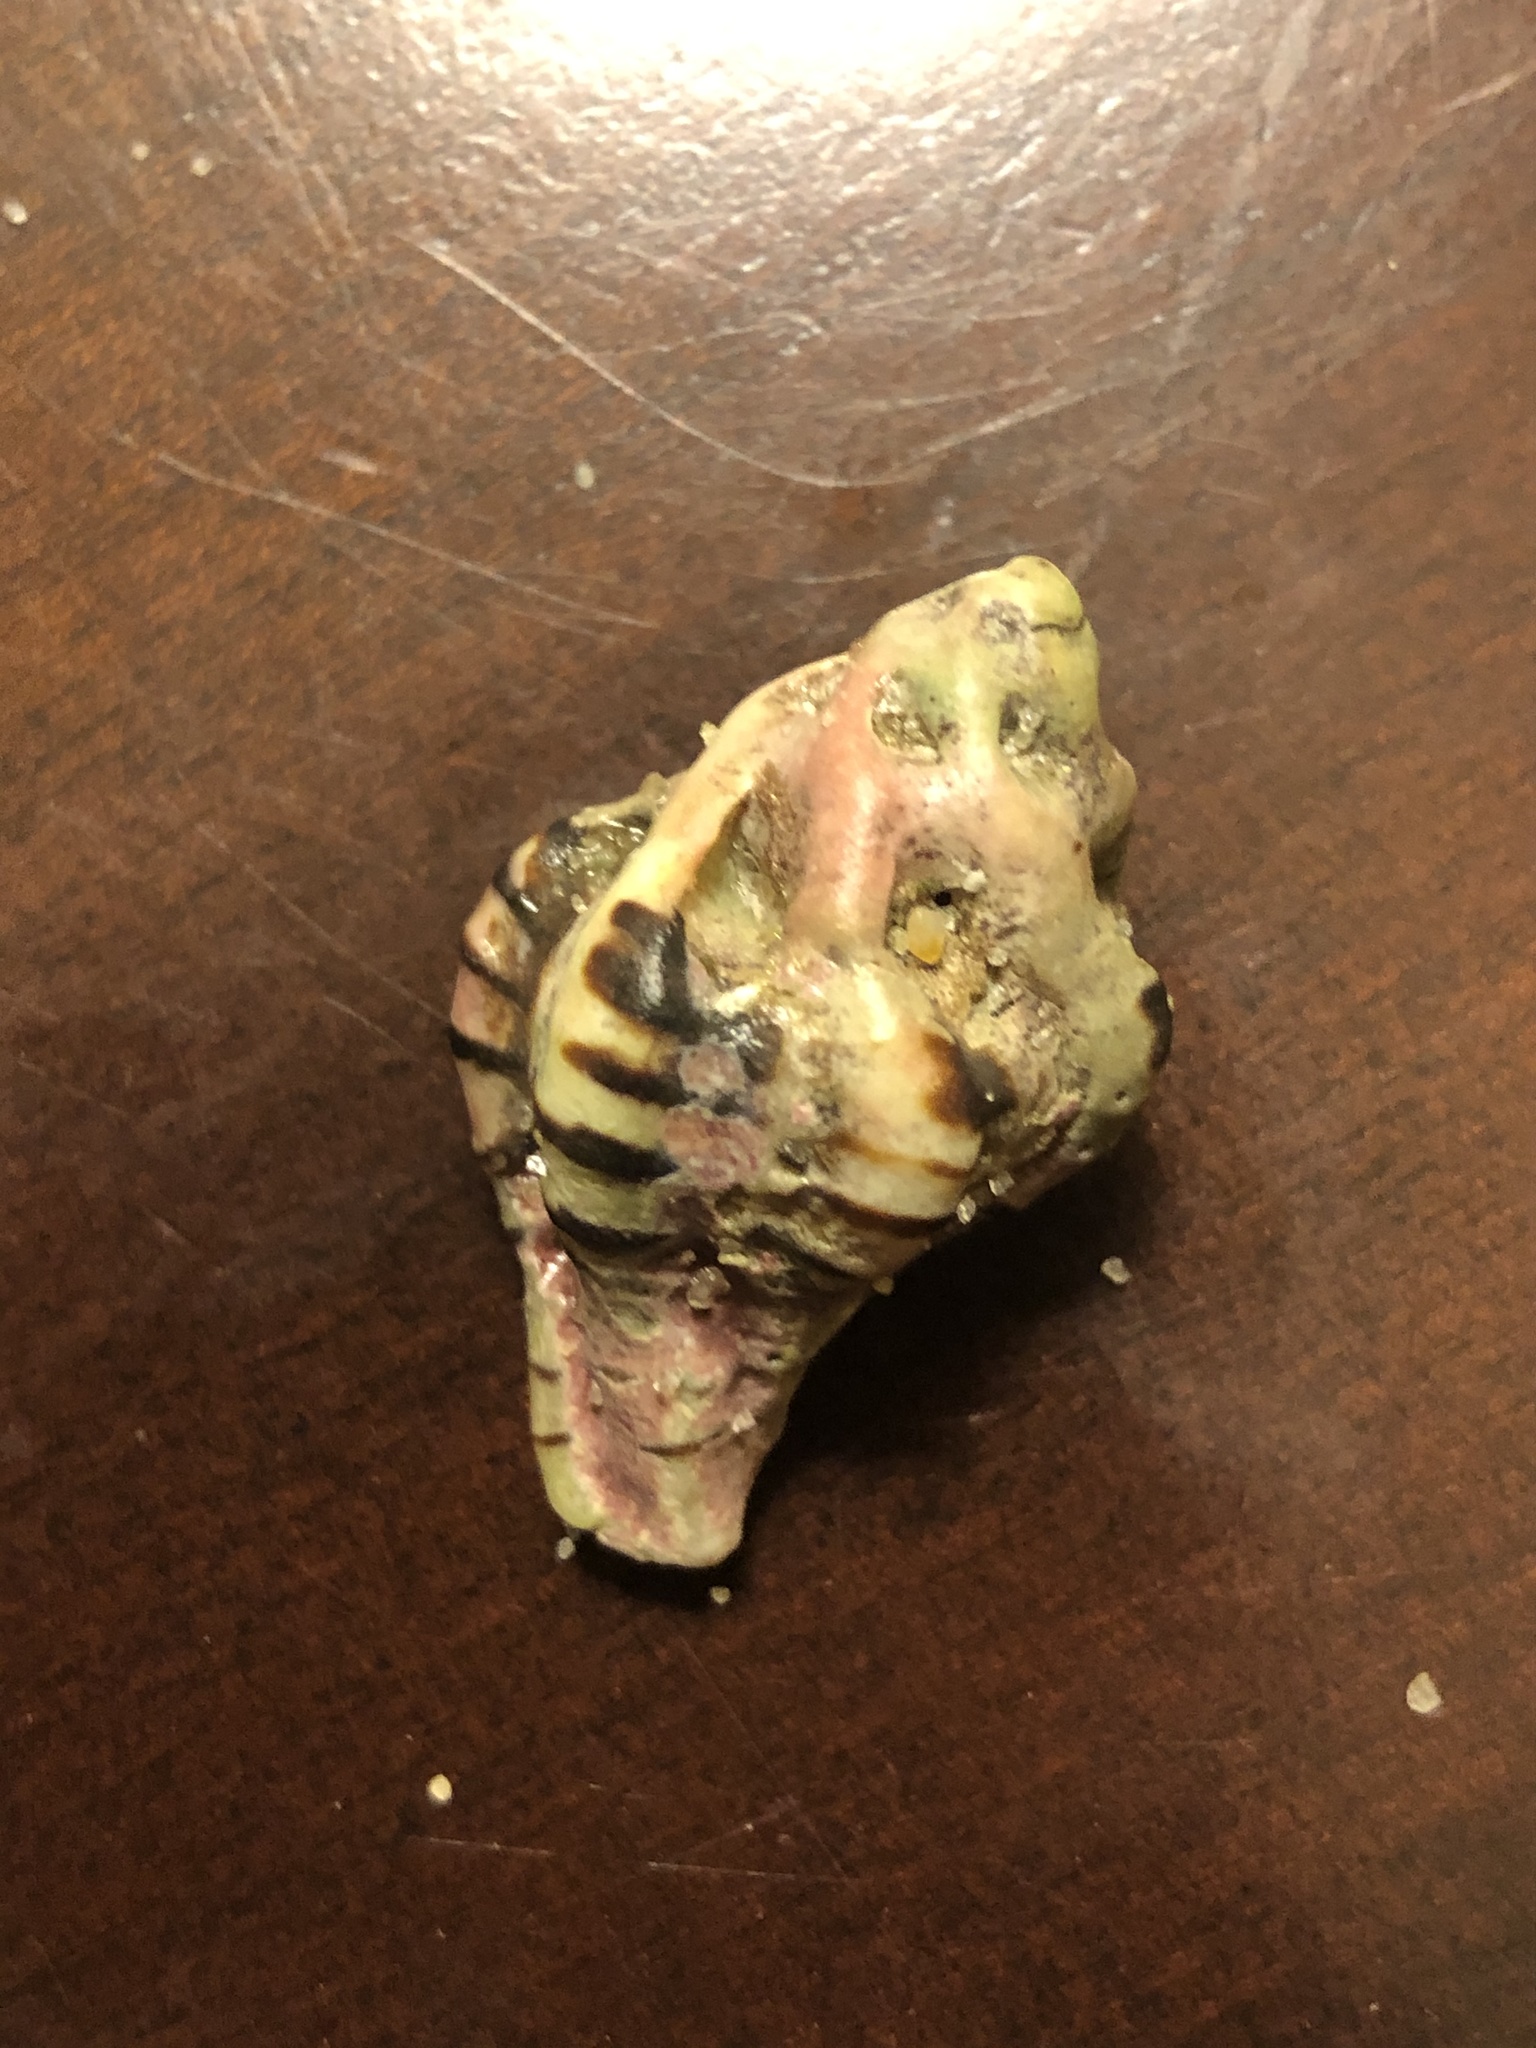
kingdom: Animalia
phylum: Mollusca
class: Gastropoda
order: Neogastropoda
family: Muricidae
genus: Maxwellia
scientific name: Maxwellia gemma
